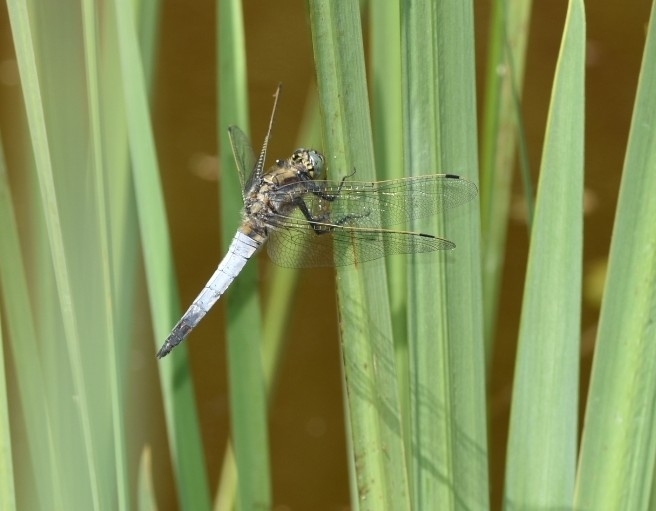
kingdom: Animalia
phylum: Arthropoda
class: Insecta
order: Odonata
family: Libellulidae
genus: Orthetrum
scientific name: Orthetrum cancellatum
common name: Black-tailed skimmer
